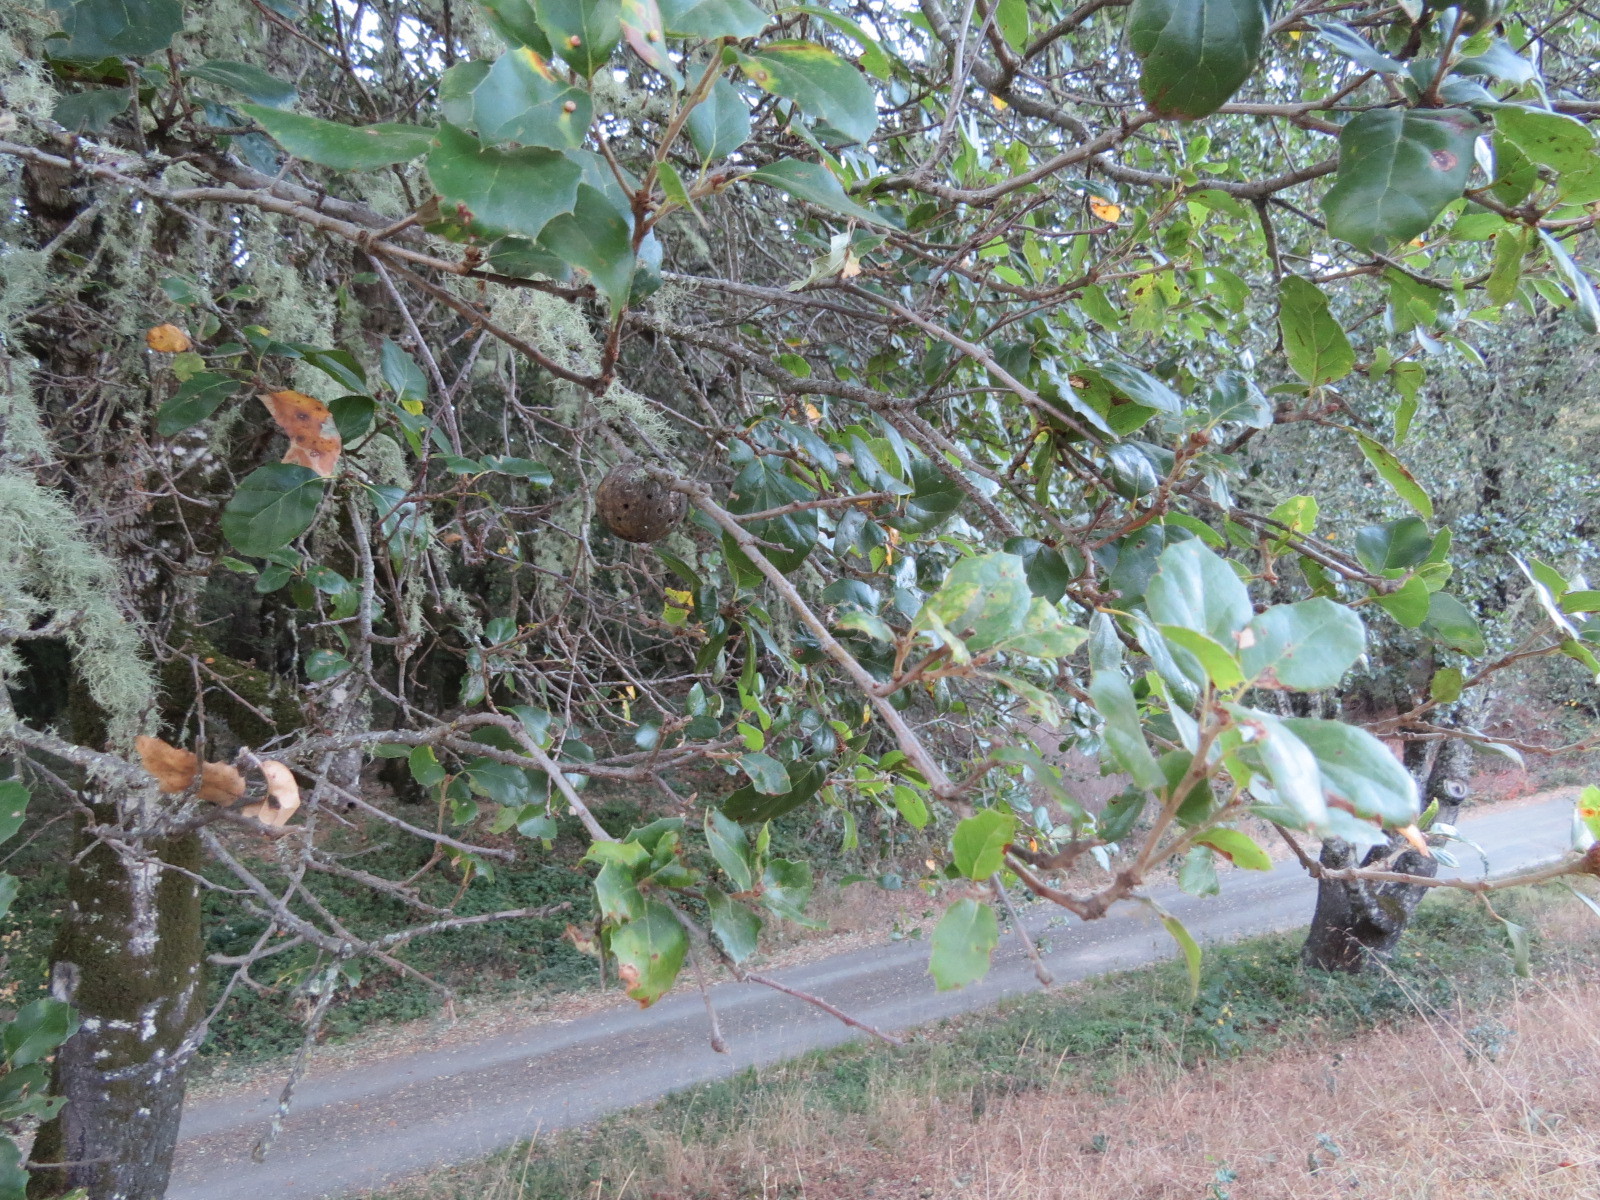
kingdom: Animalia
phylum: Arthropoda
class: Insecta
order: Hymenoptera
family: Cynipidae
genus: Amphibolips
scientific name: Amphibolips quercuspomiformis
